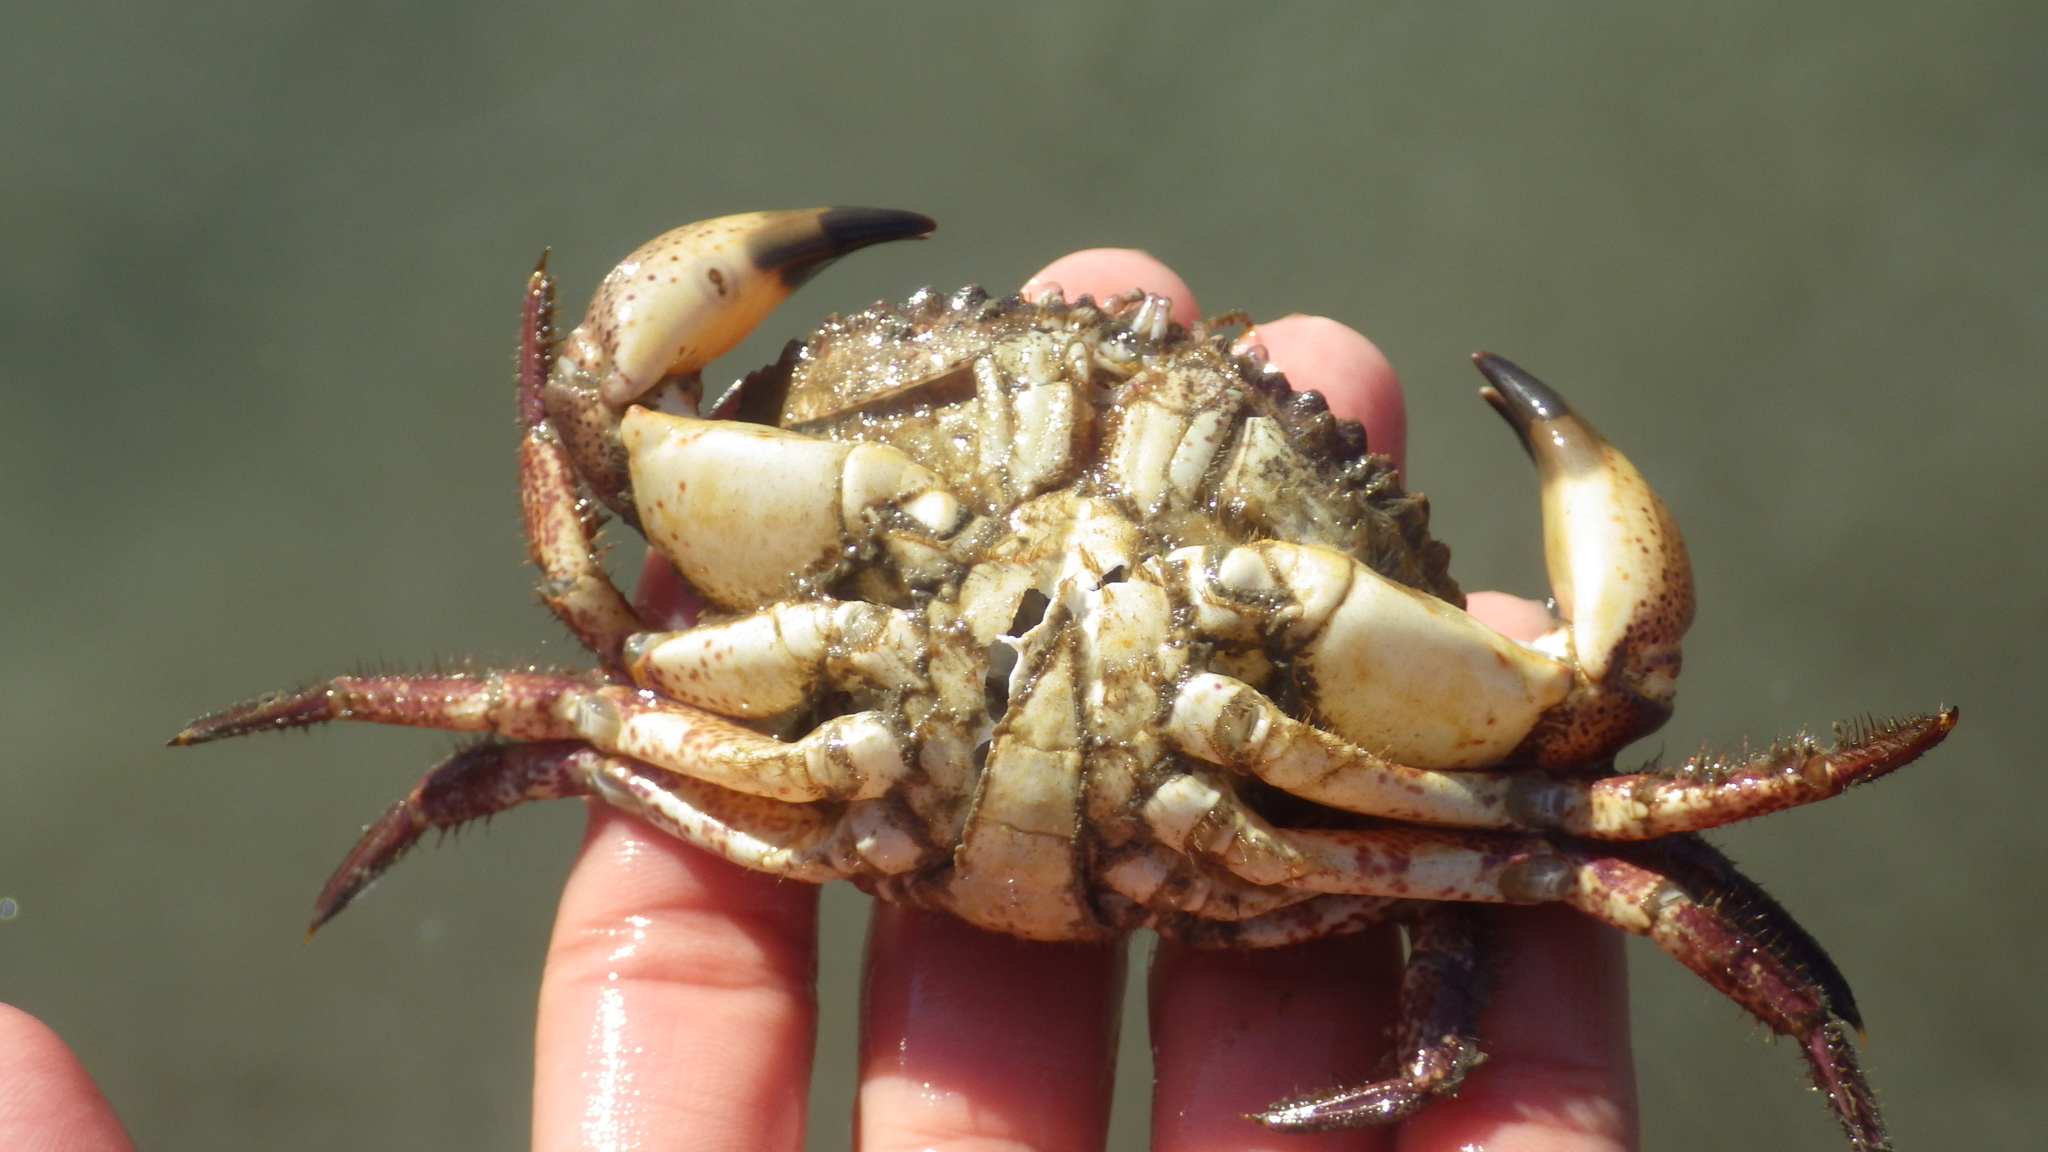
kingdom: Animalia
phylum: Arthropoda
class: Malacostraca
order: Decapoda
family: Cancridae
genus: Romaleon
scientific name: Romaleon antennarium
